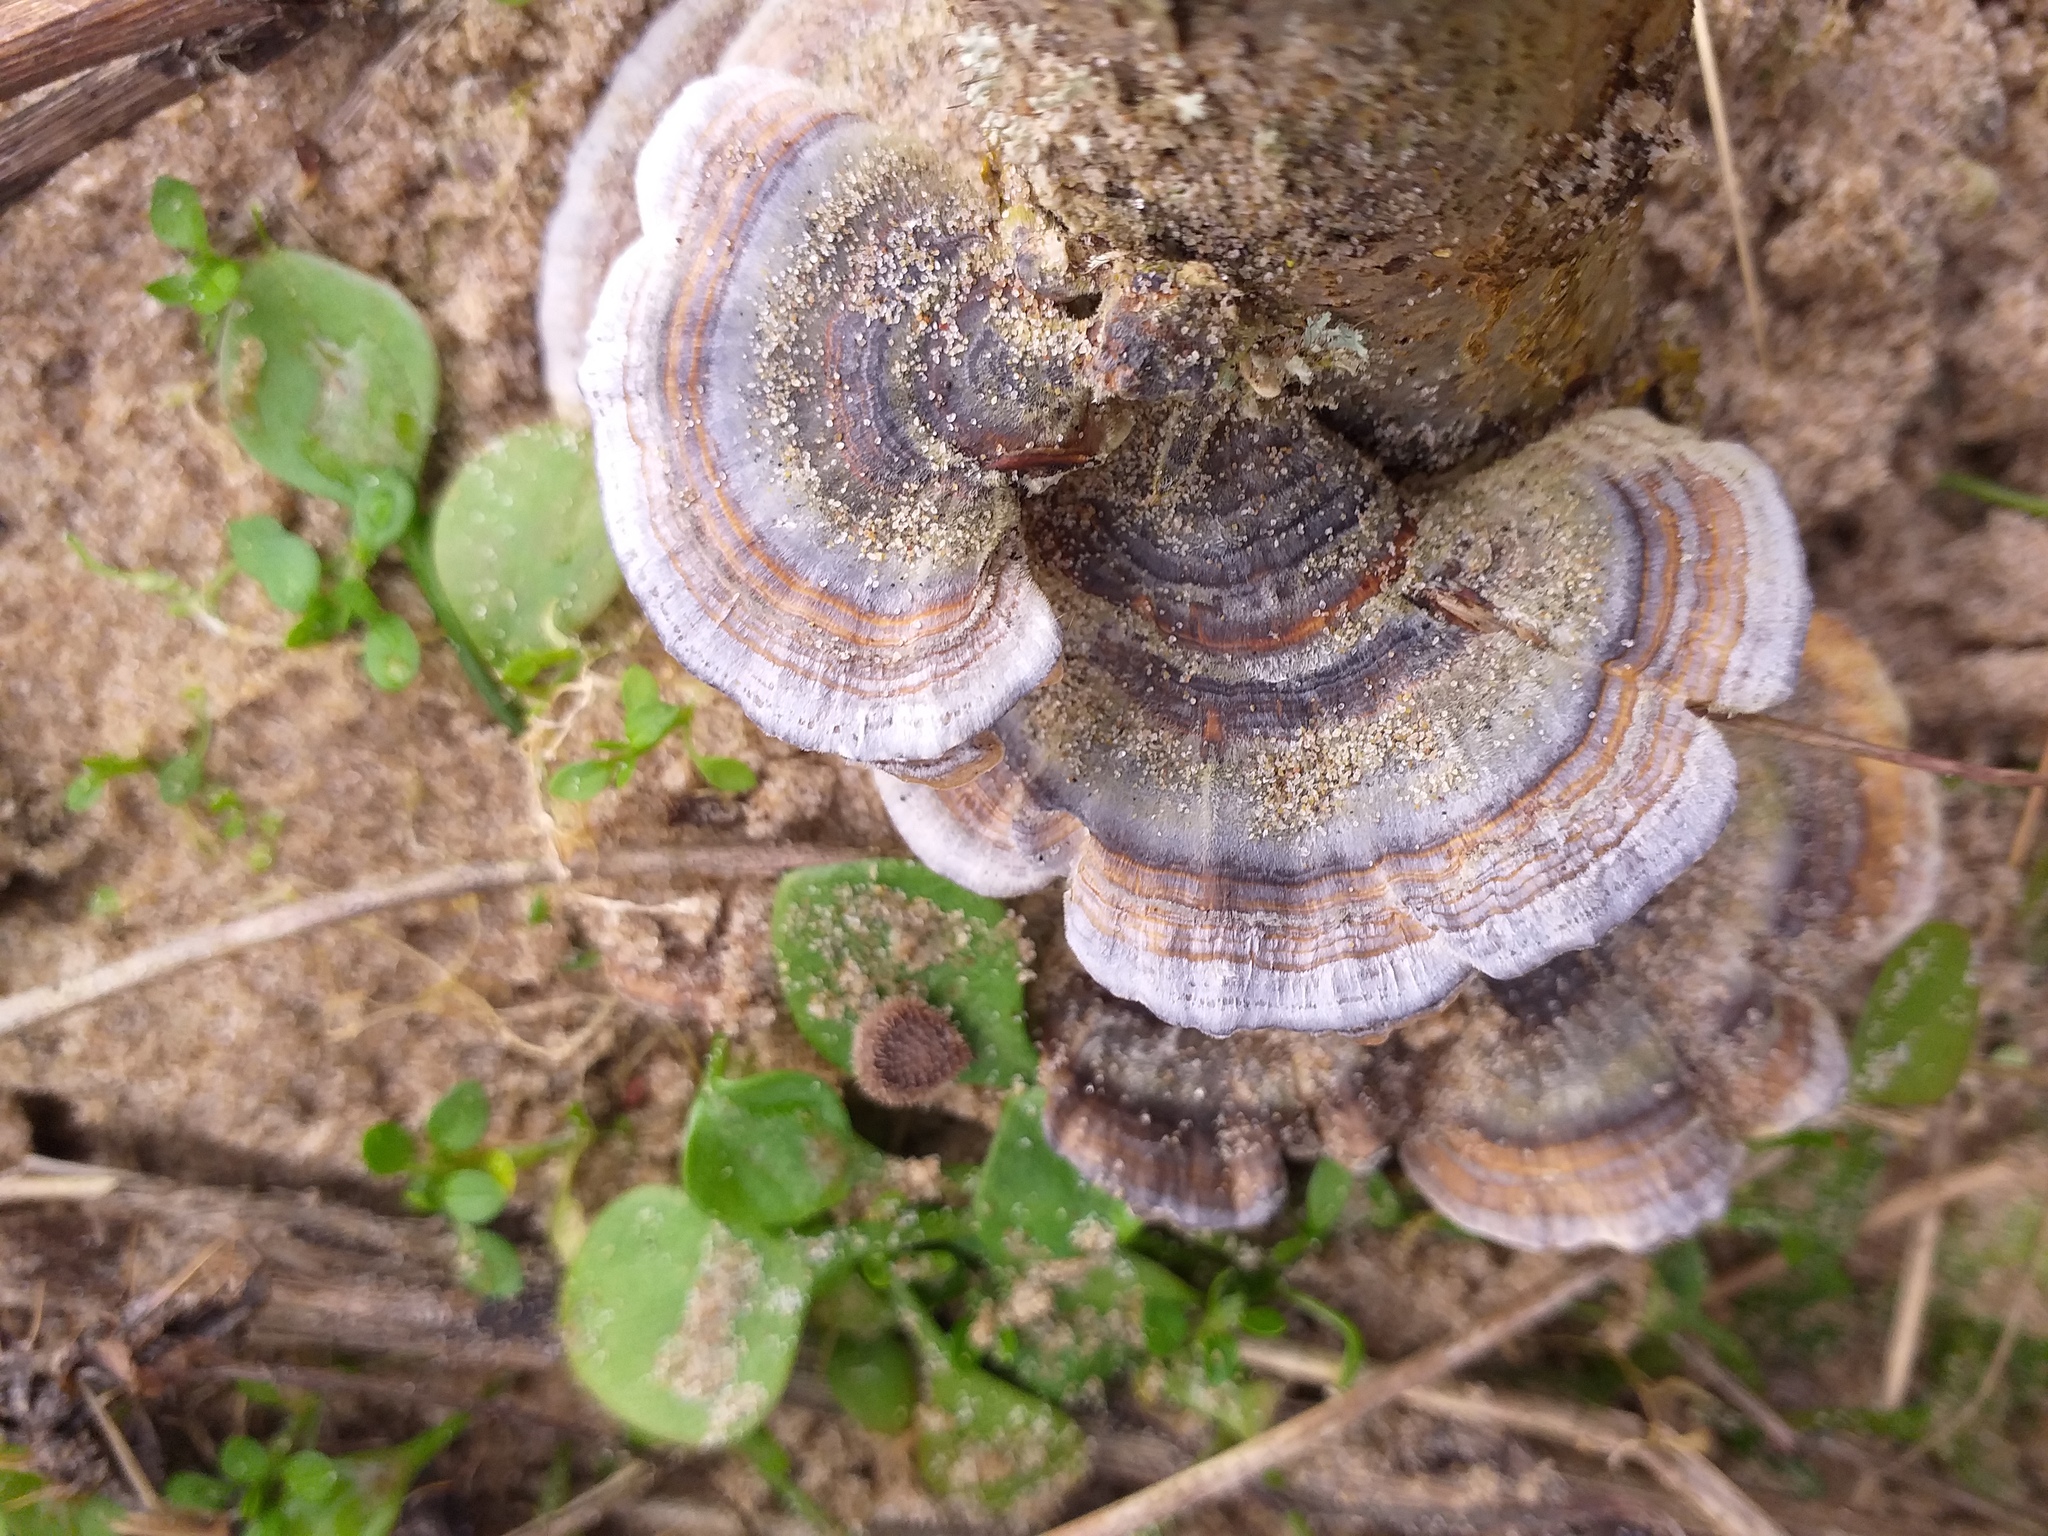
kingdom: Fungi
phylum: Basidiomycota
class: Agaricomycetes
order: Polyporales
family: Polyporaceae
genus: Trametes
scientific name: Trametes versicolor
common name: Turkeytail
